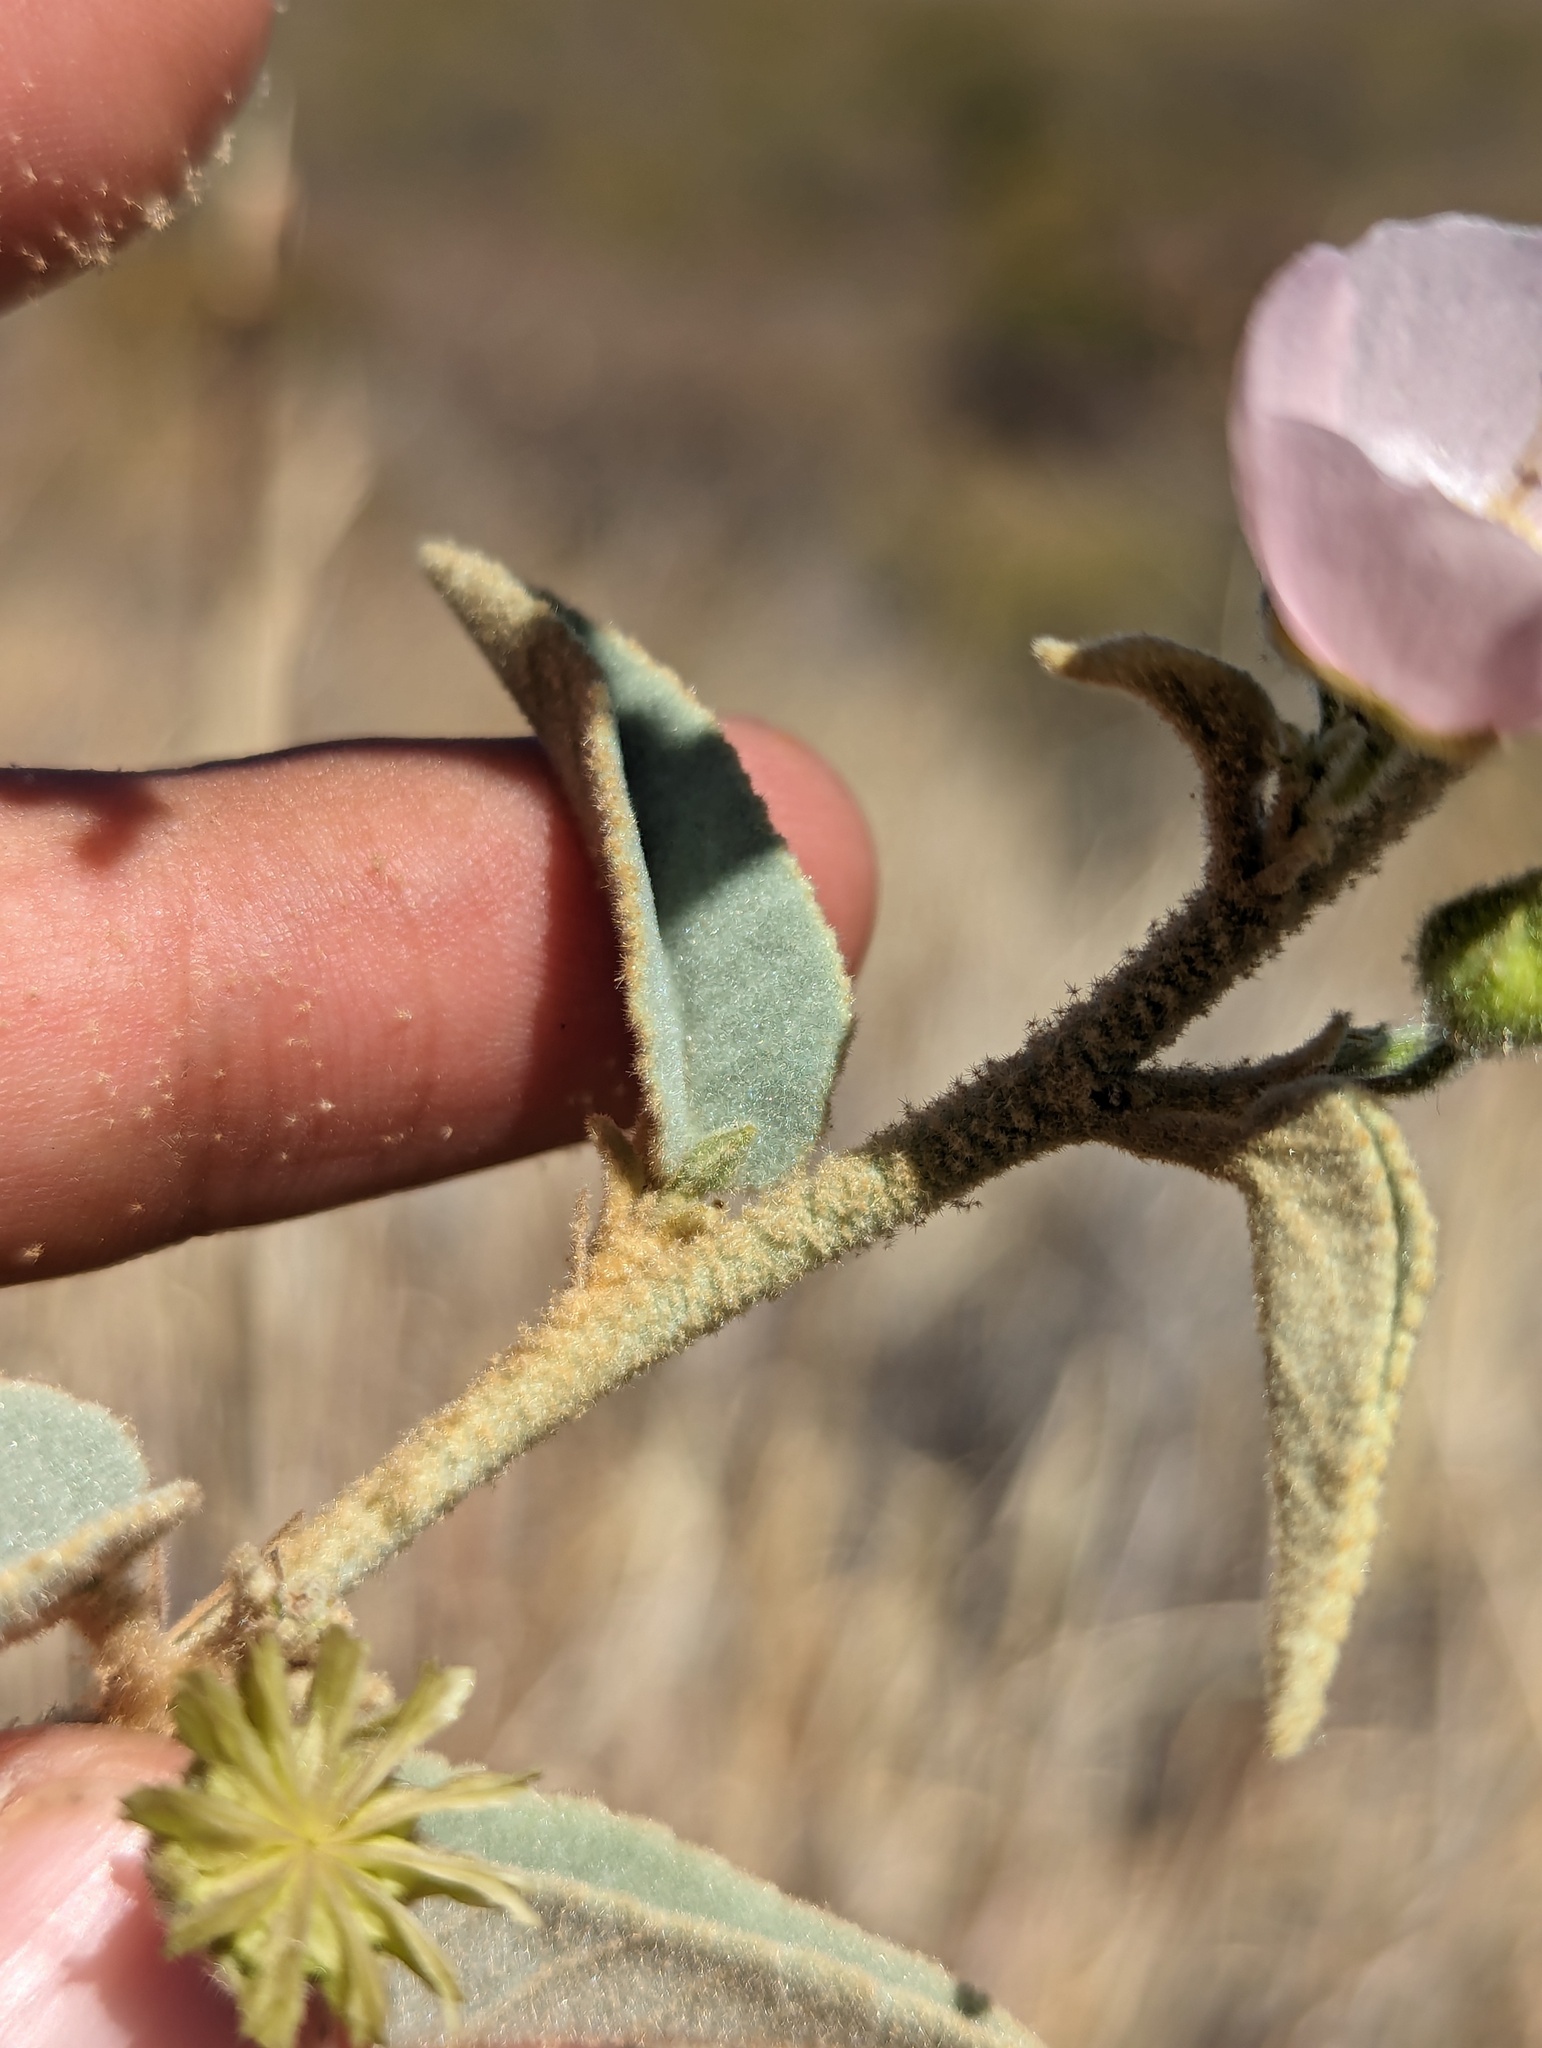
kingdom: Plantae
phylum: Tracheophyta
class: Magnoliopsida
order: Malvales
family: Malvaceae
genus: Horsfordia
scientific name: Horsfordia alata
